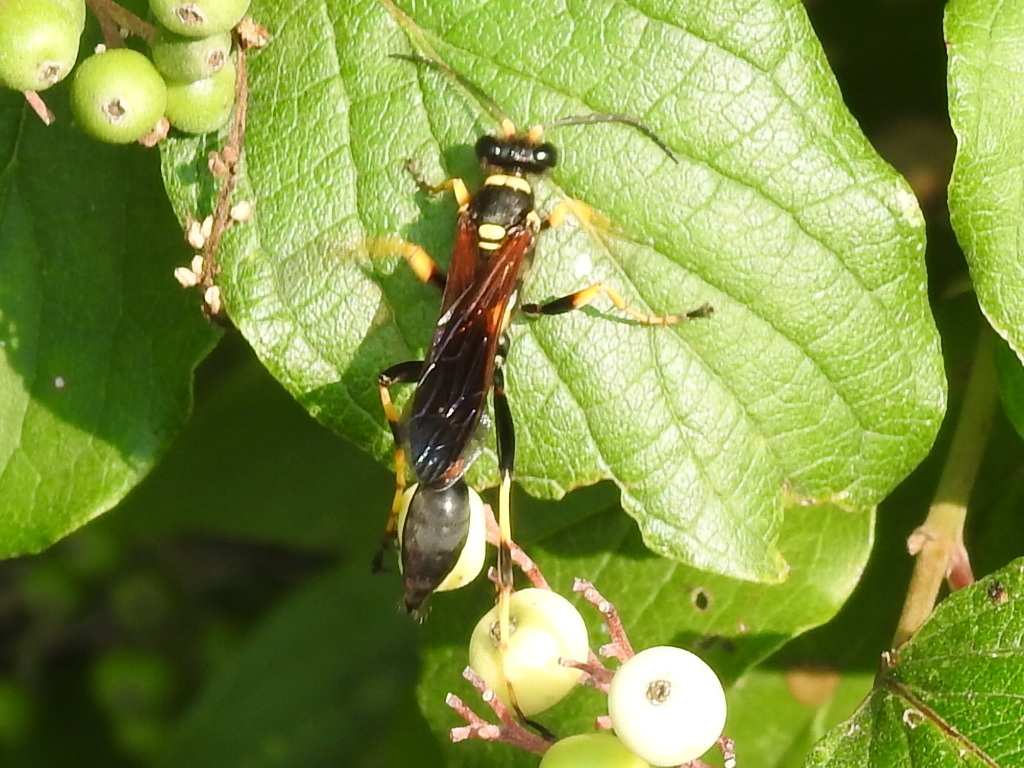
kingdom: Animalia
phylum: Arthropoda
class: Insecta
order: Hymenoptera
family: Sphecidae
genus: Sceliphron
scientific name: Sceliphron caementarium
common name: Mud dauber
